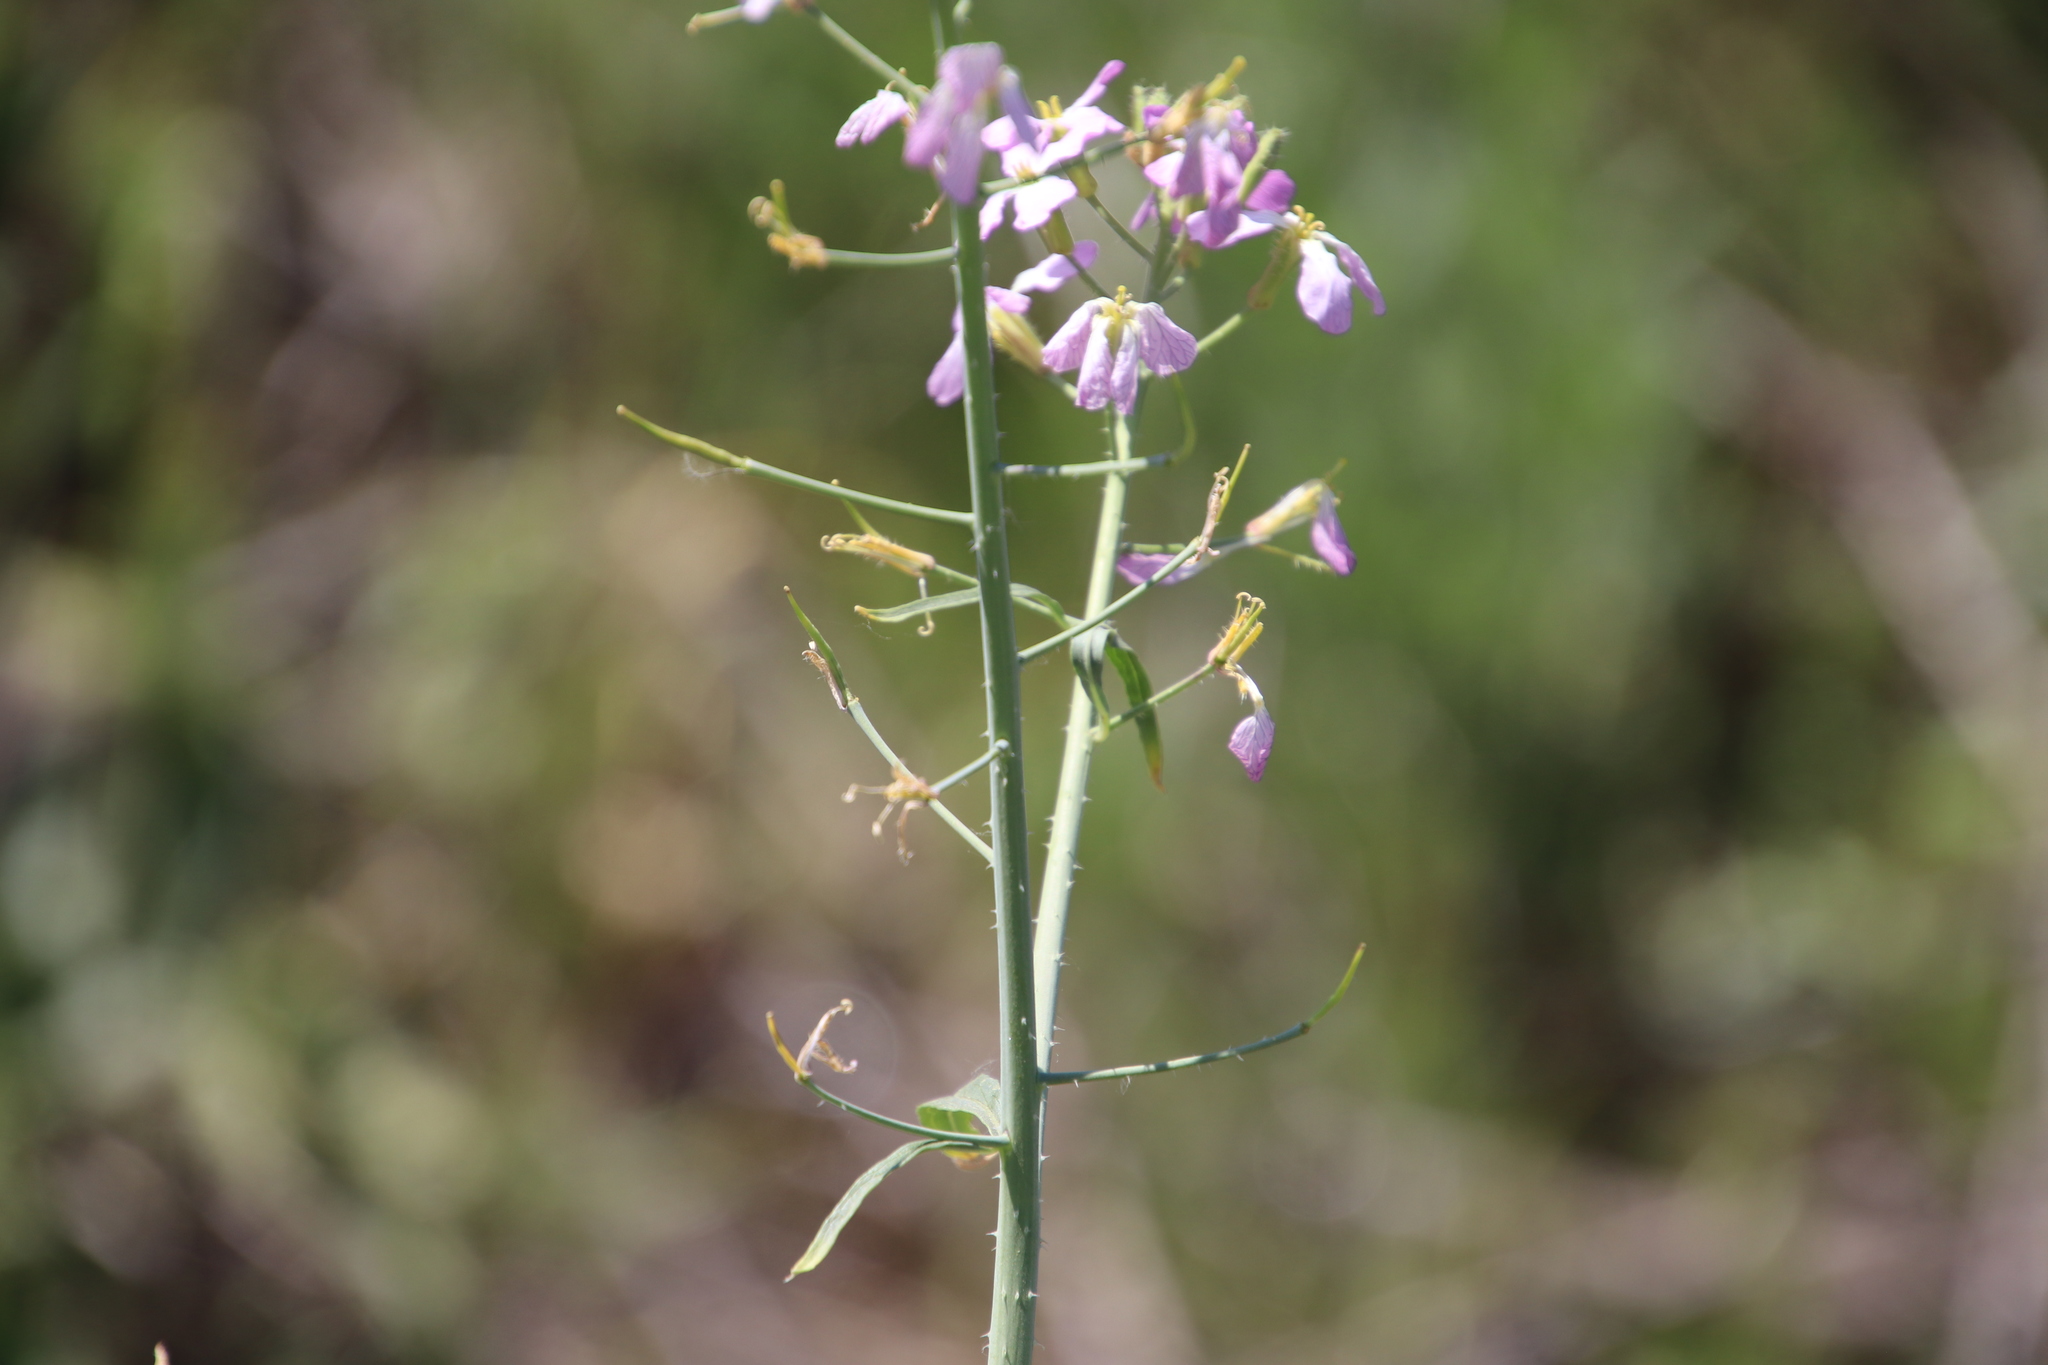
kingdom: Plantae
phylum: Tracheophyta
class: Magnoliopsida
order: Brassicales
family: Brassicaceae
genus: Raphanus
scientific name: Raphanus sativus
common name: Cultivated radish
